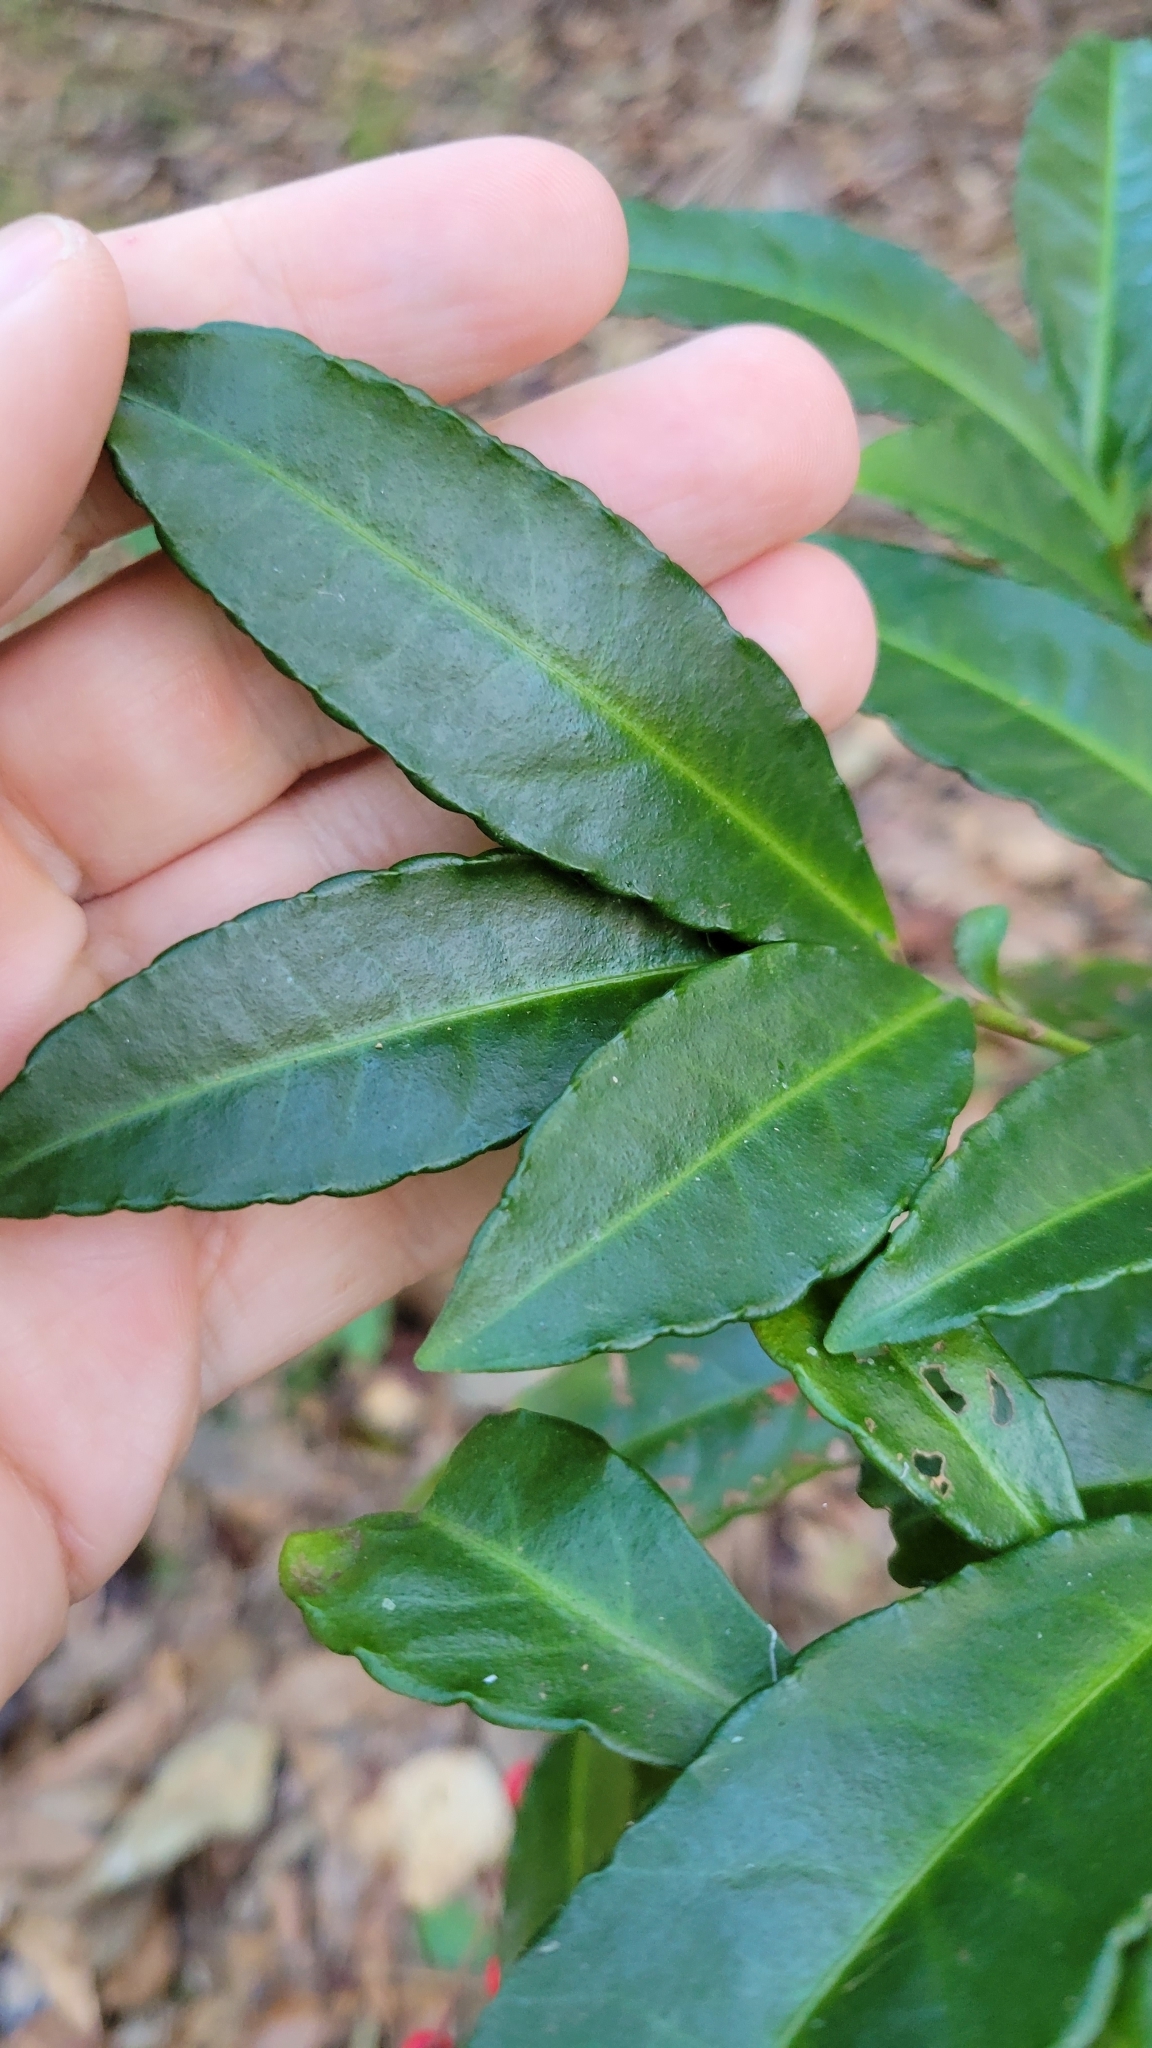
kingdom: Plantae
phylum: Tracheophyta
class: Magnoliopsida
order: Ericales
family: Primulaceae
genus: Ardisia
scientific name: Ardisia crenata
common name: Hen's eyes
